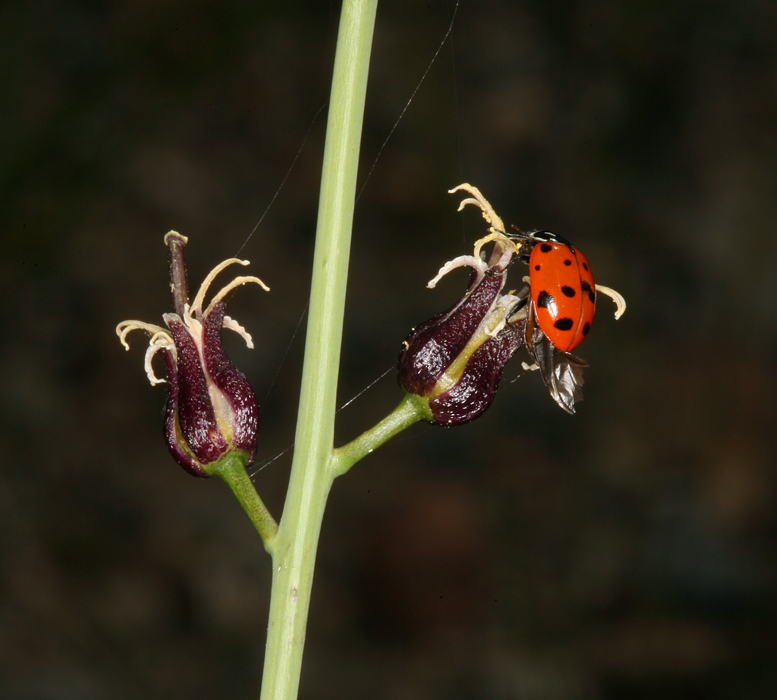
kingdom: Plantae
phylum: Tracheophyta
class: Magnoliopsida
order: Brassicales
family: Brassicaceae
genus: Streptanthus
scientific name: Streptanthus pilosus
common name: Chocolate drops
